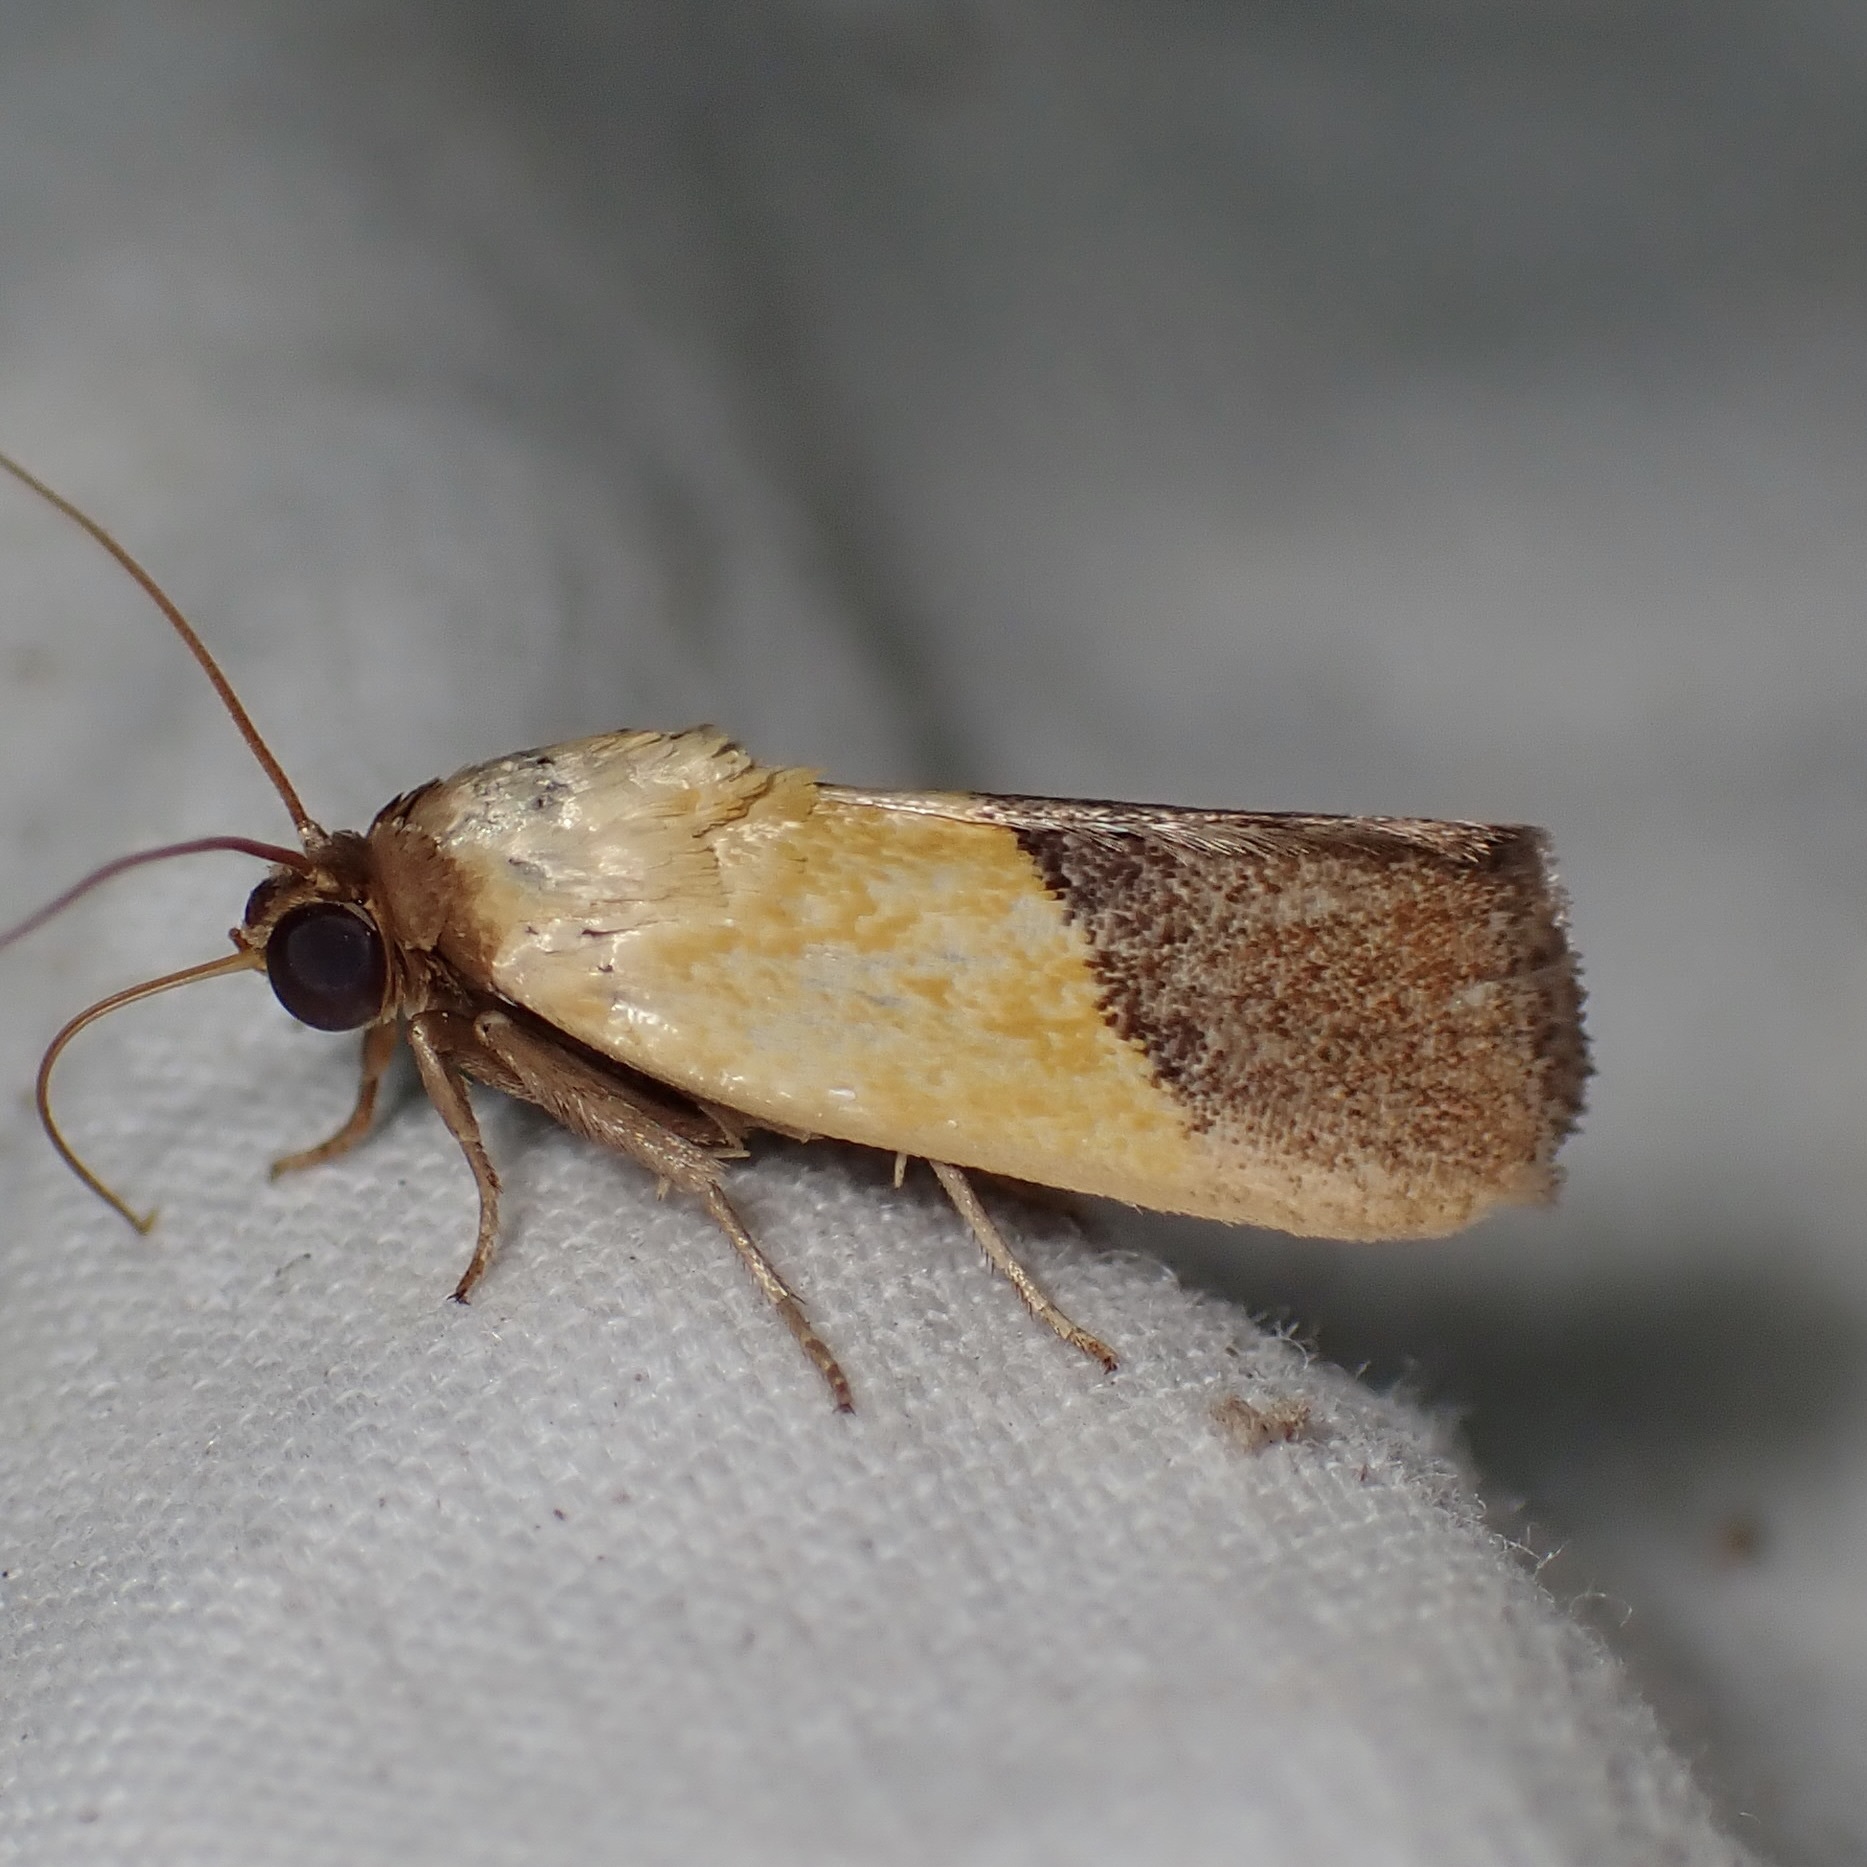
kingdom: Animalia
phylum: Arthropoda
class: Insecta
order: Lepidoptera
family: Noctuidae
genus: Acontia
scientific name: Acontia bicolorata
